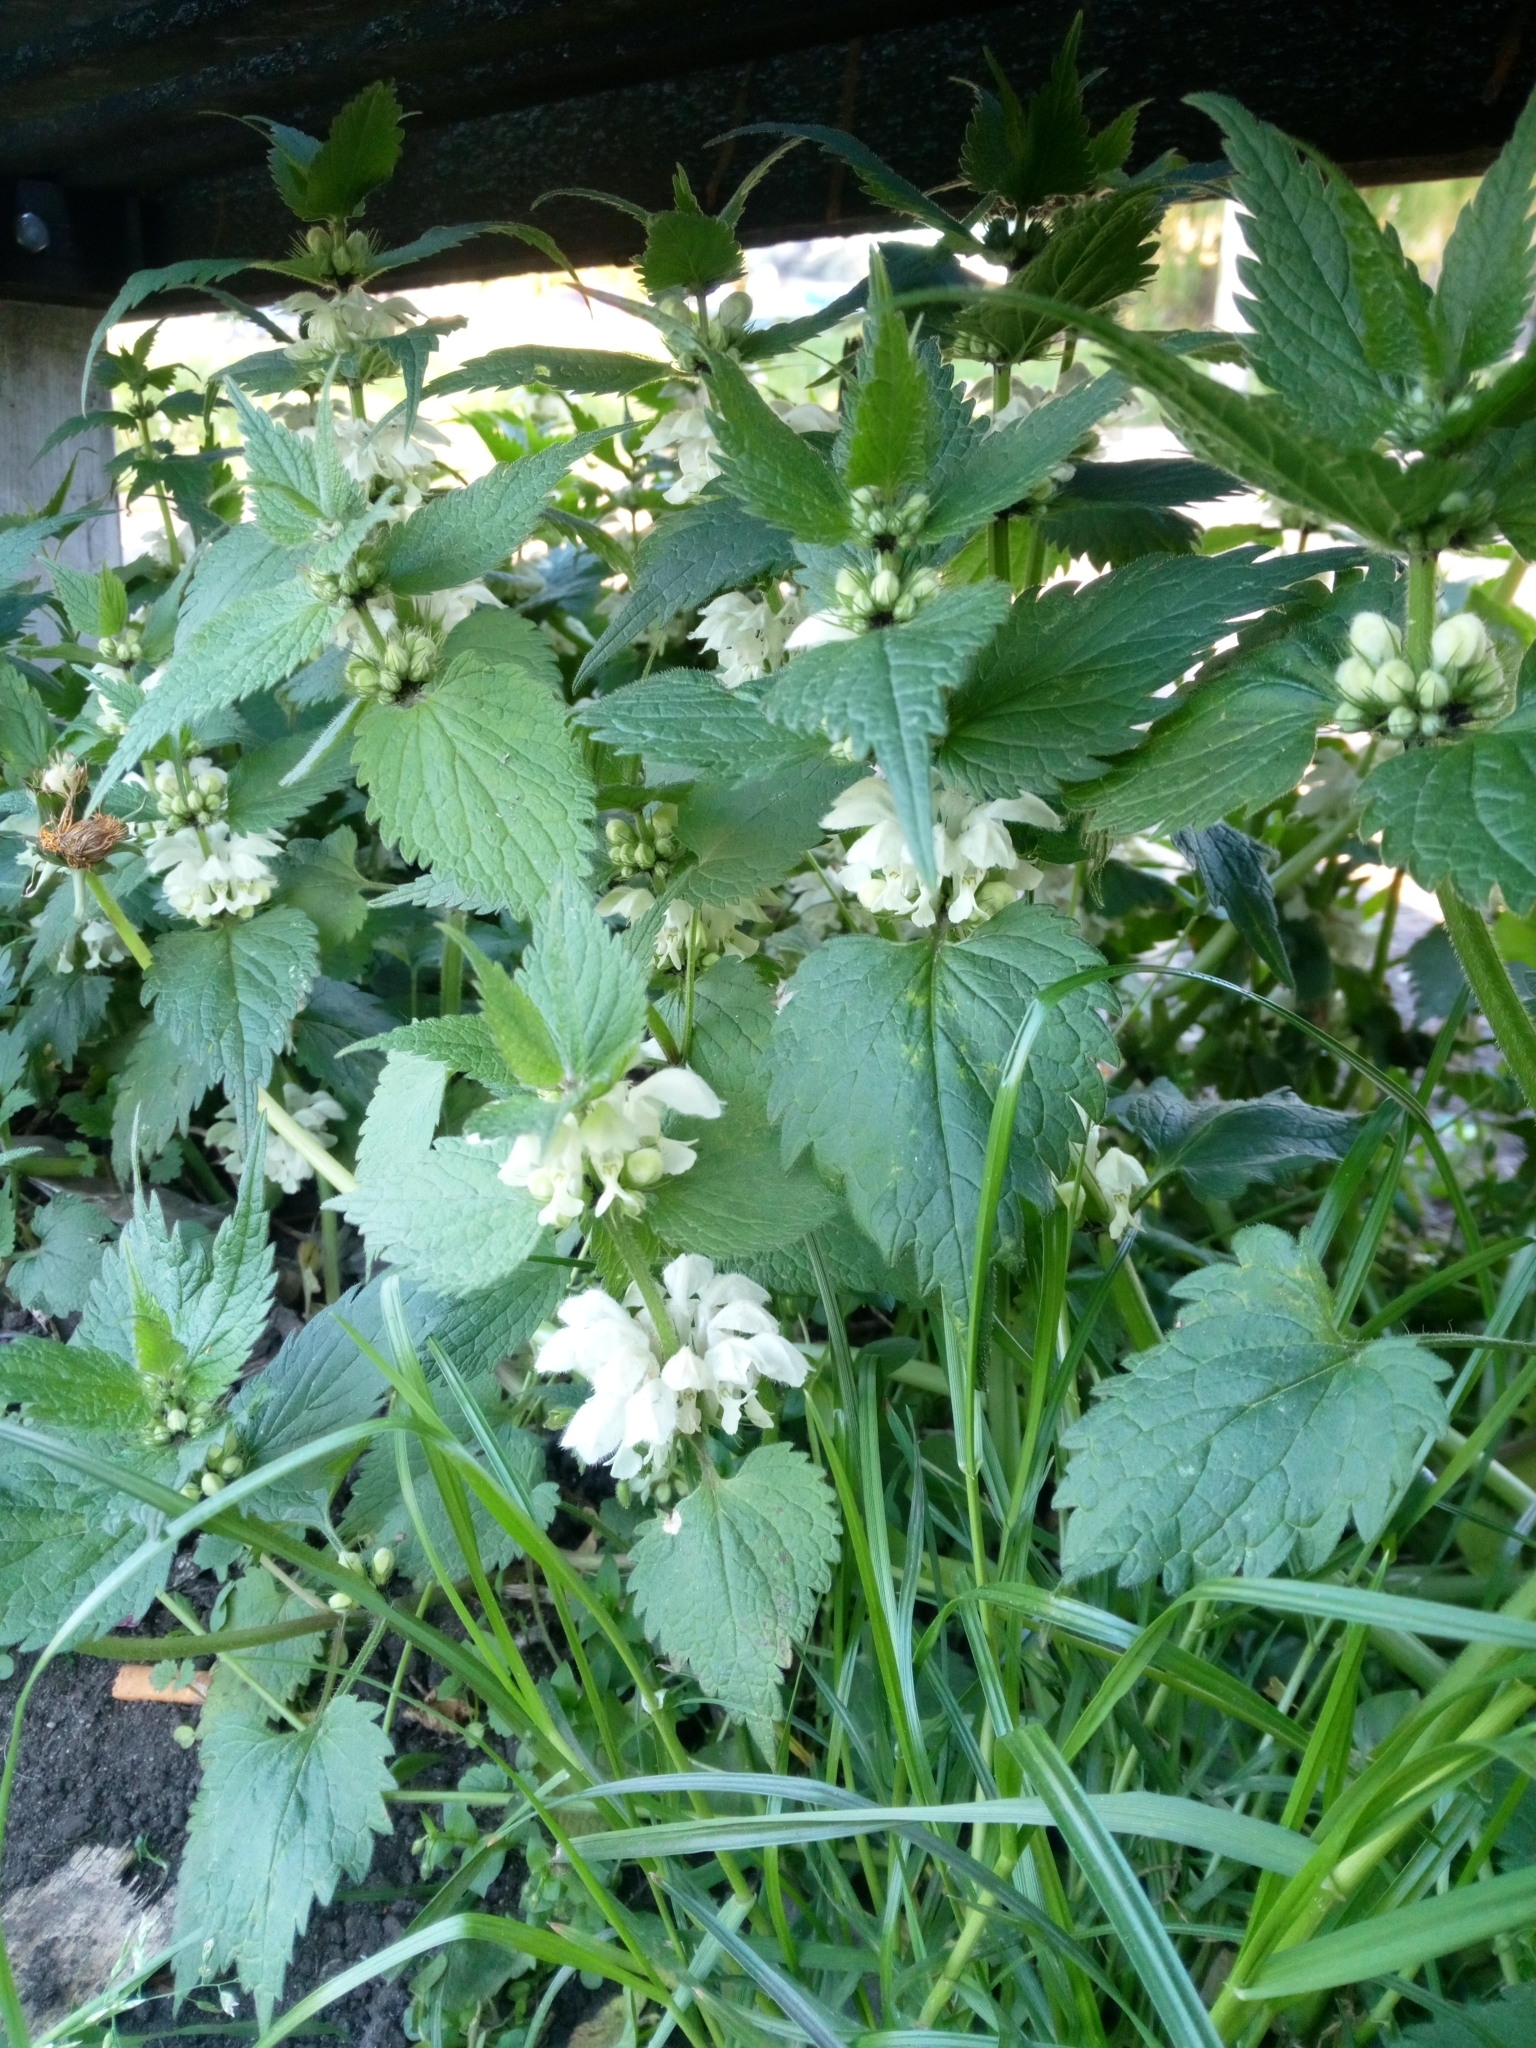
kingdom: Plantae
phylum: Tracheophyta
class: Magnoliopsida
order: Lamiales
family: Lamiaceae
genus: Lamium
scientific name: Lamium album
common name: White dead-nettle
